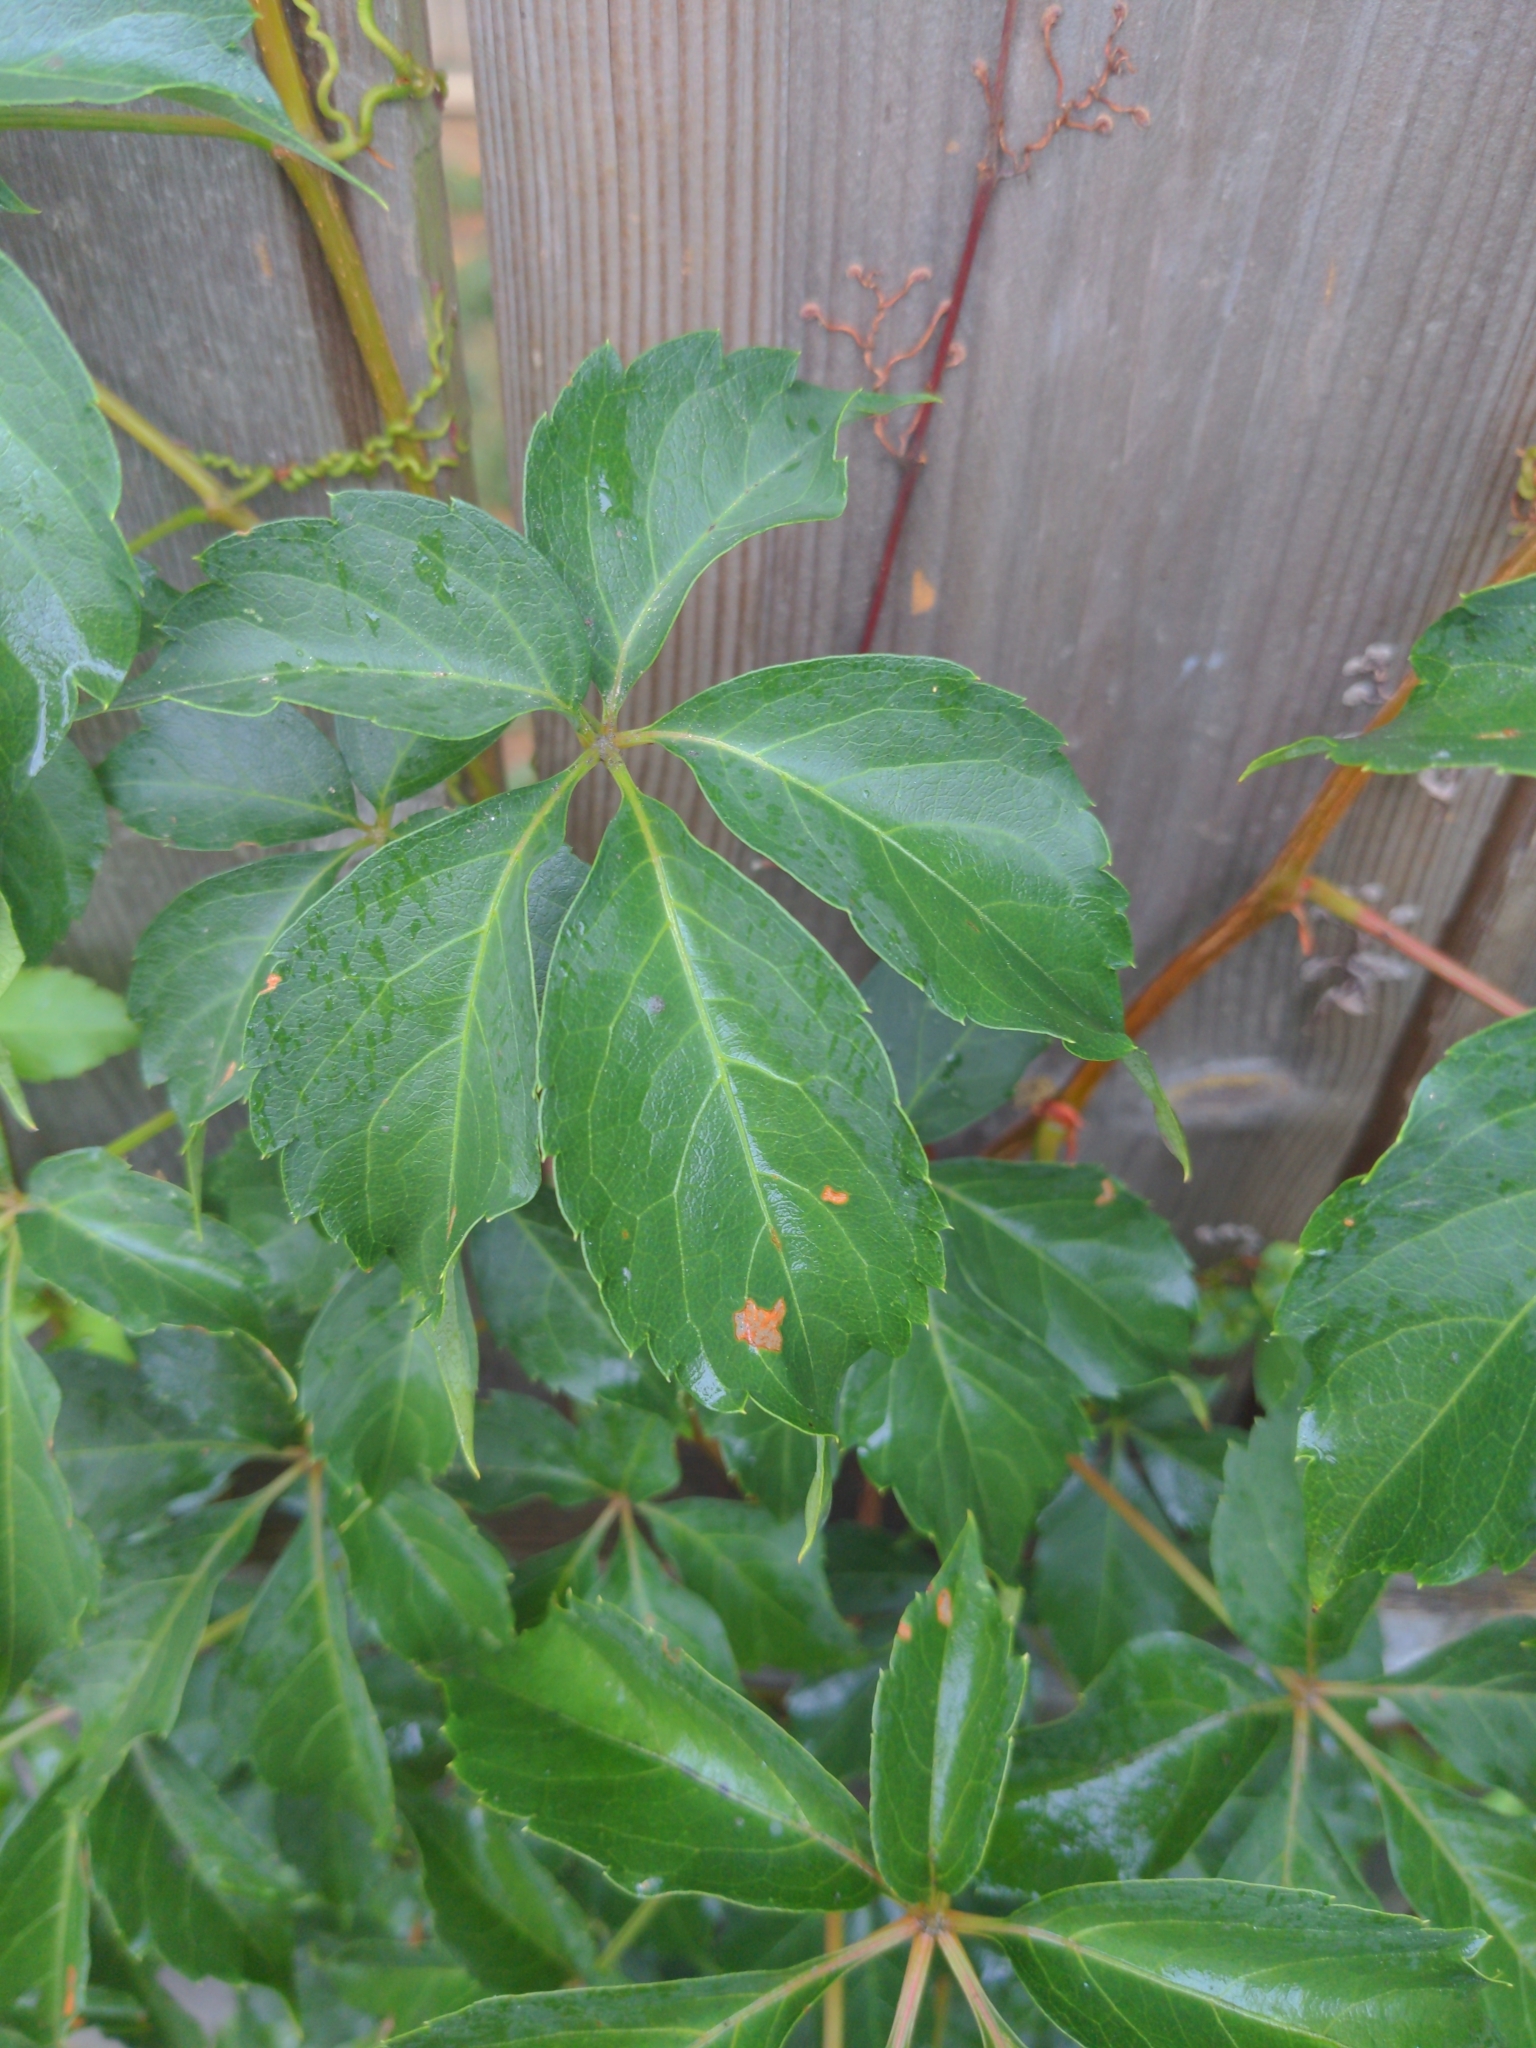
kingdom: Plantae
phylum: Tracheophyta
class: Magnoliopsida
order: Vitales
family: Vitaceae
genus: Parthenocissus
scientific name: Parthenocissus quinquefolia
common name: Virginia-creeper
